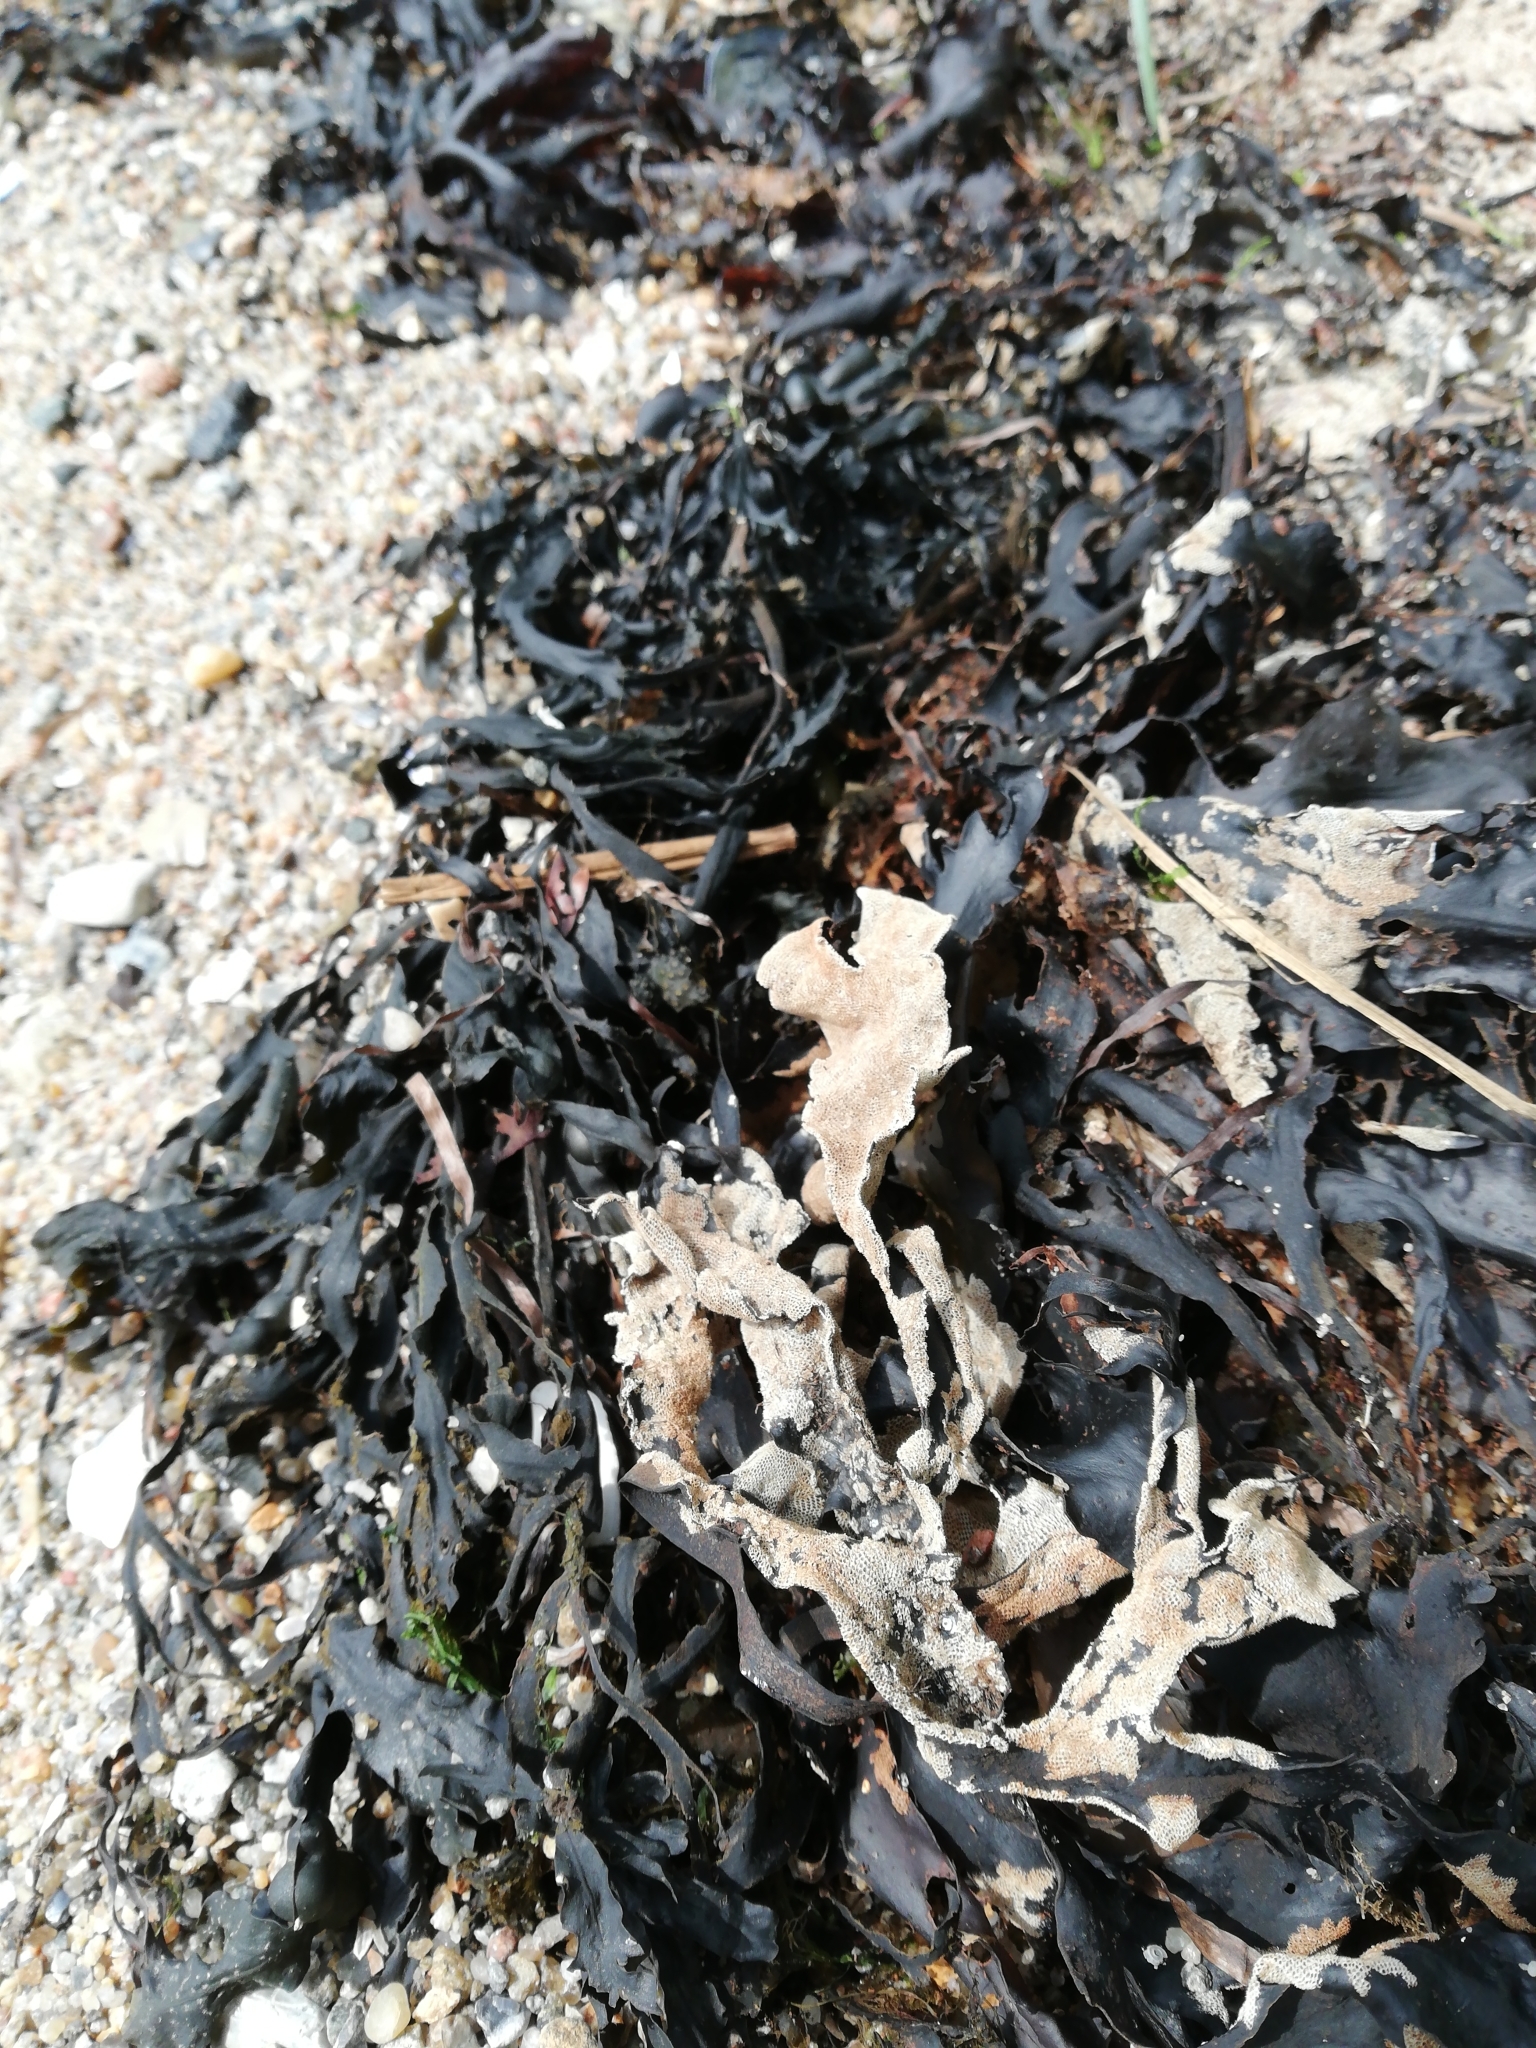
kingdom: Animalia
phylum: Bryozoa
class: Gymnolaemata
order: Cheilostomatida
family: Electridae
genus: Electra
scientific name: Electra pilosa
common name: Hairy sea-mat
